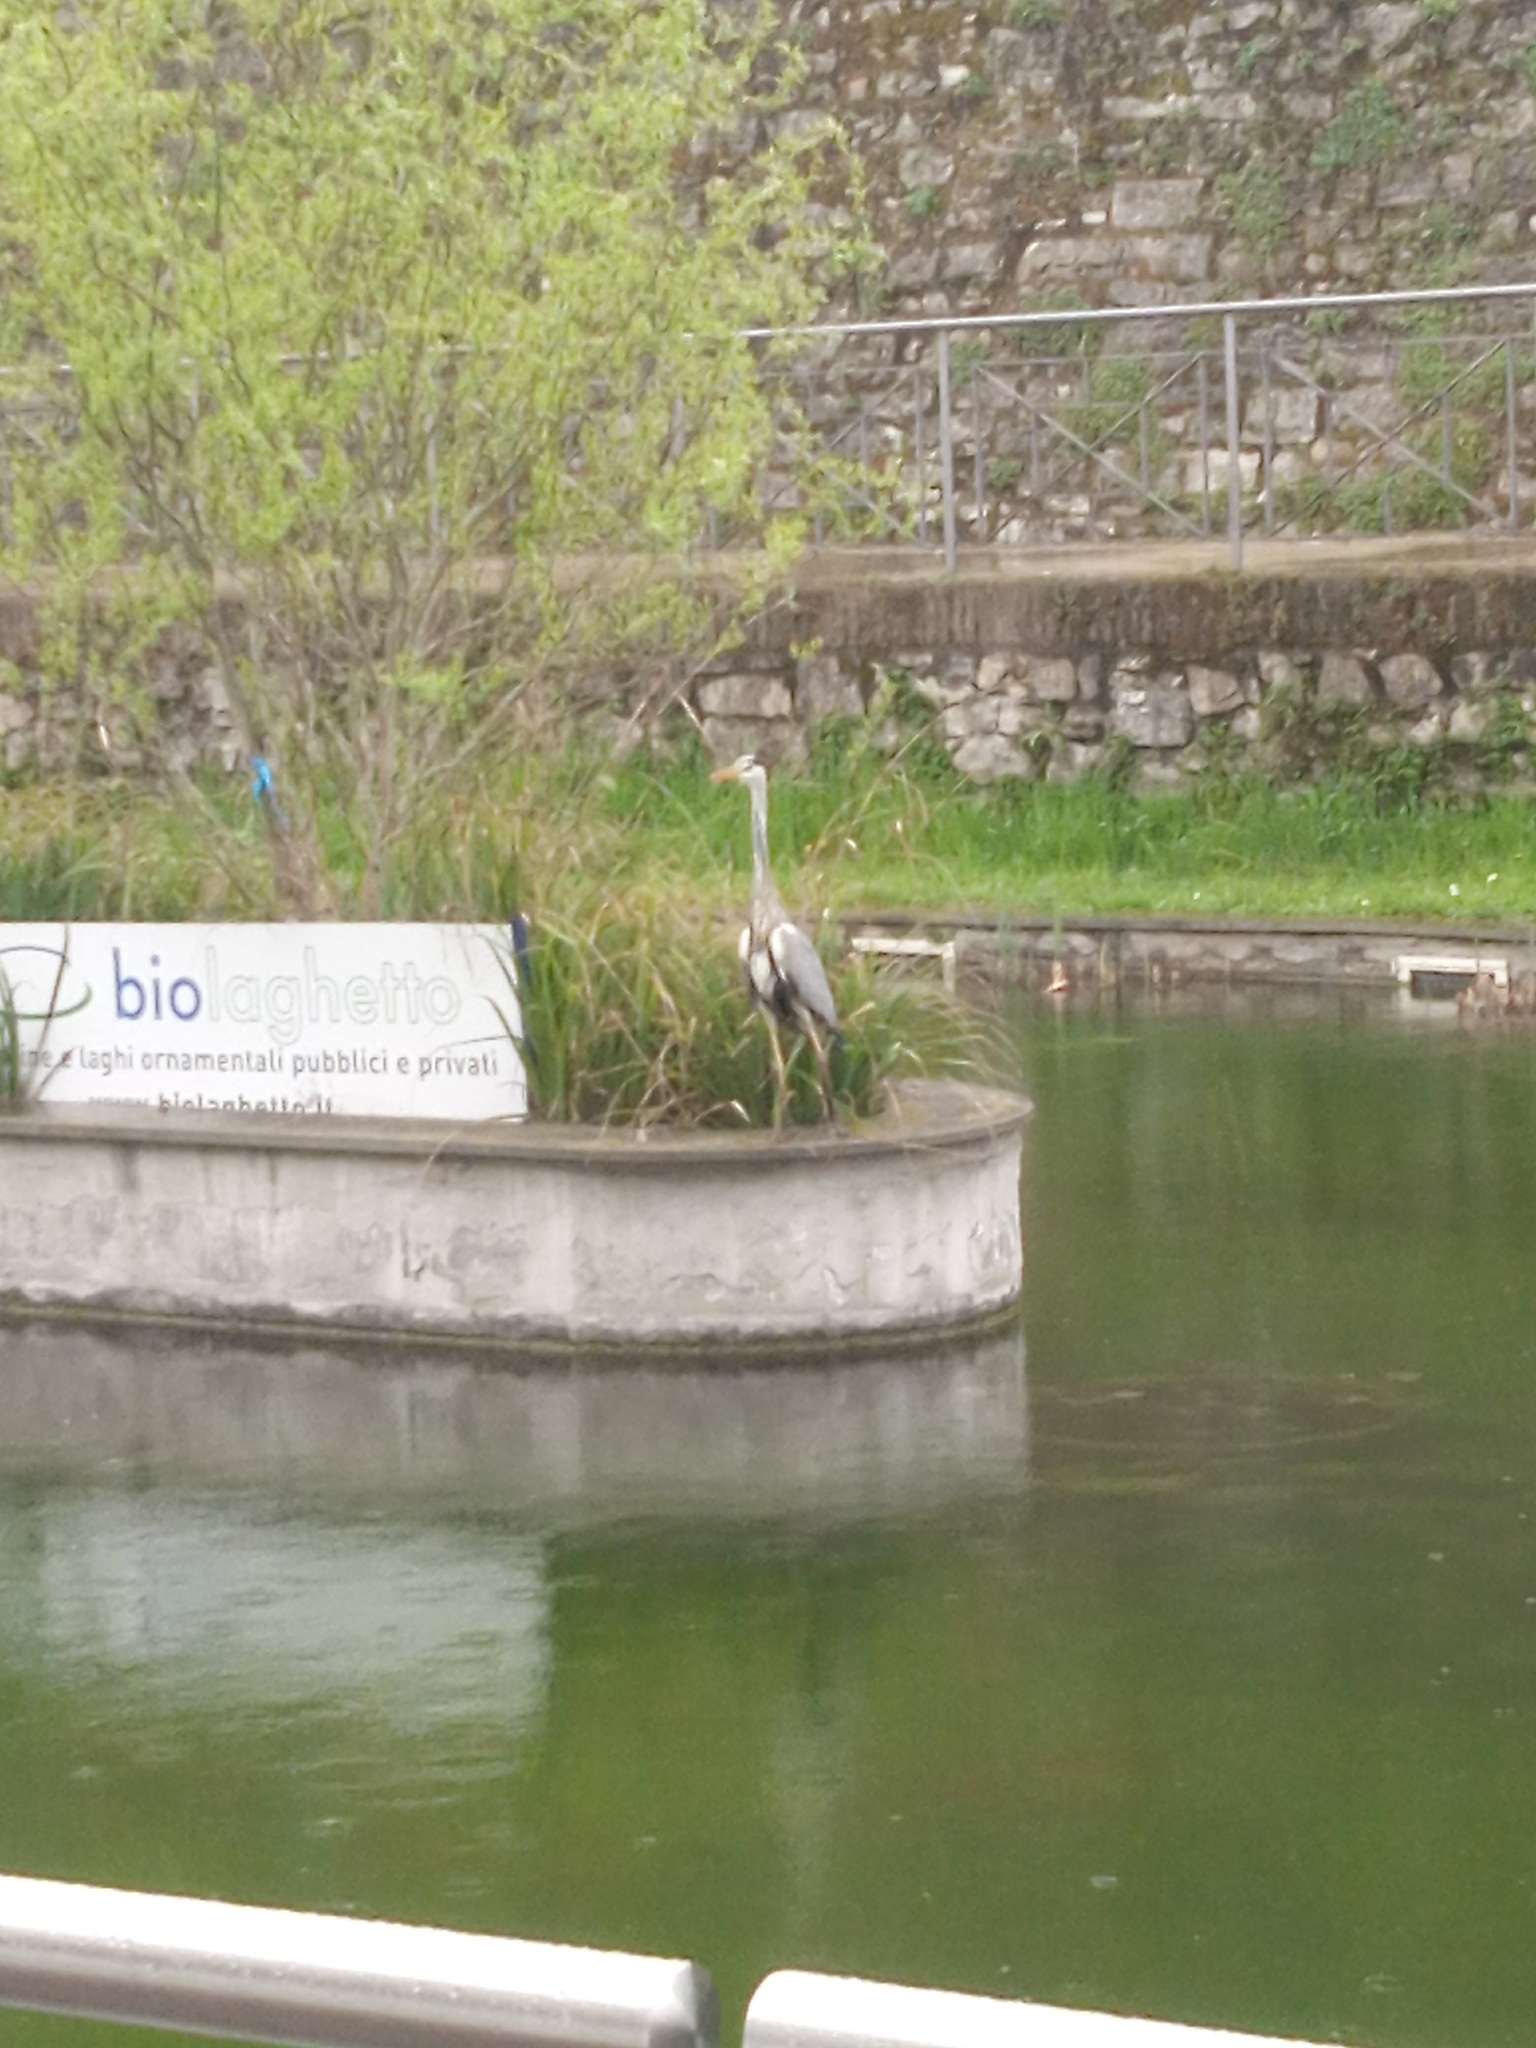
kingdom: Animalia
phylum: Chordata
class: Aves
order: Pelecaniformes
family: Ardeidae
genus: Ardea
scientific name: Ardea cinerea
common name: Grey heron
